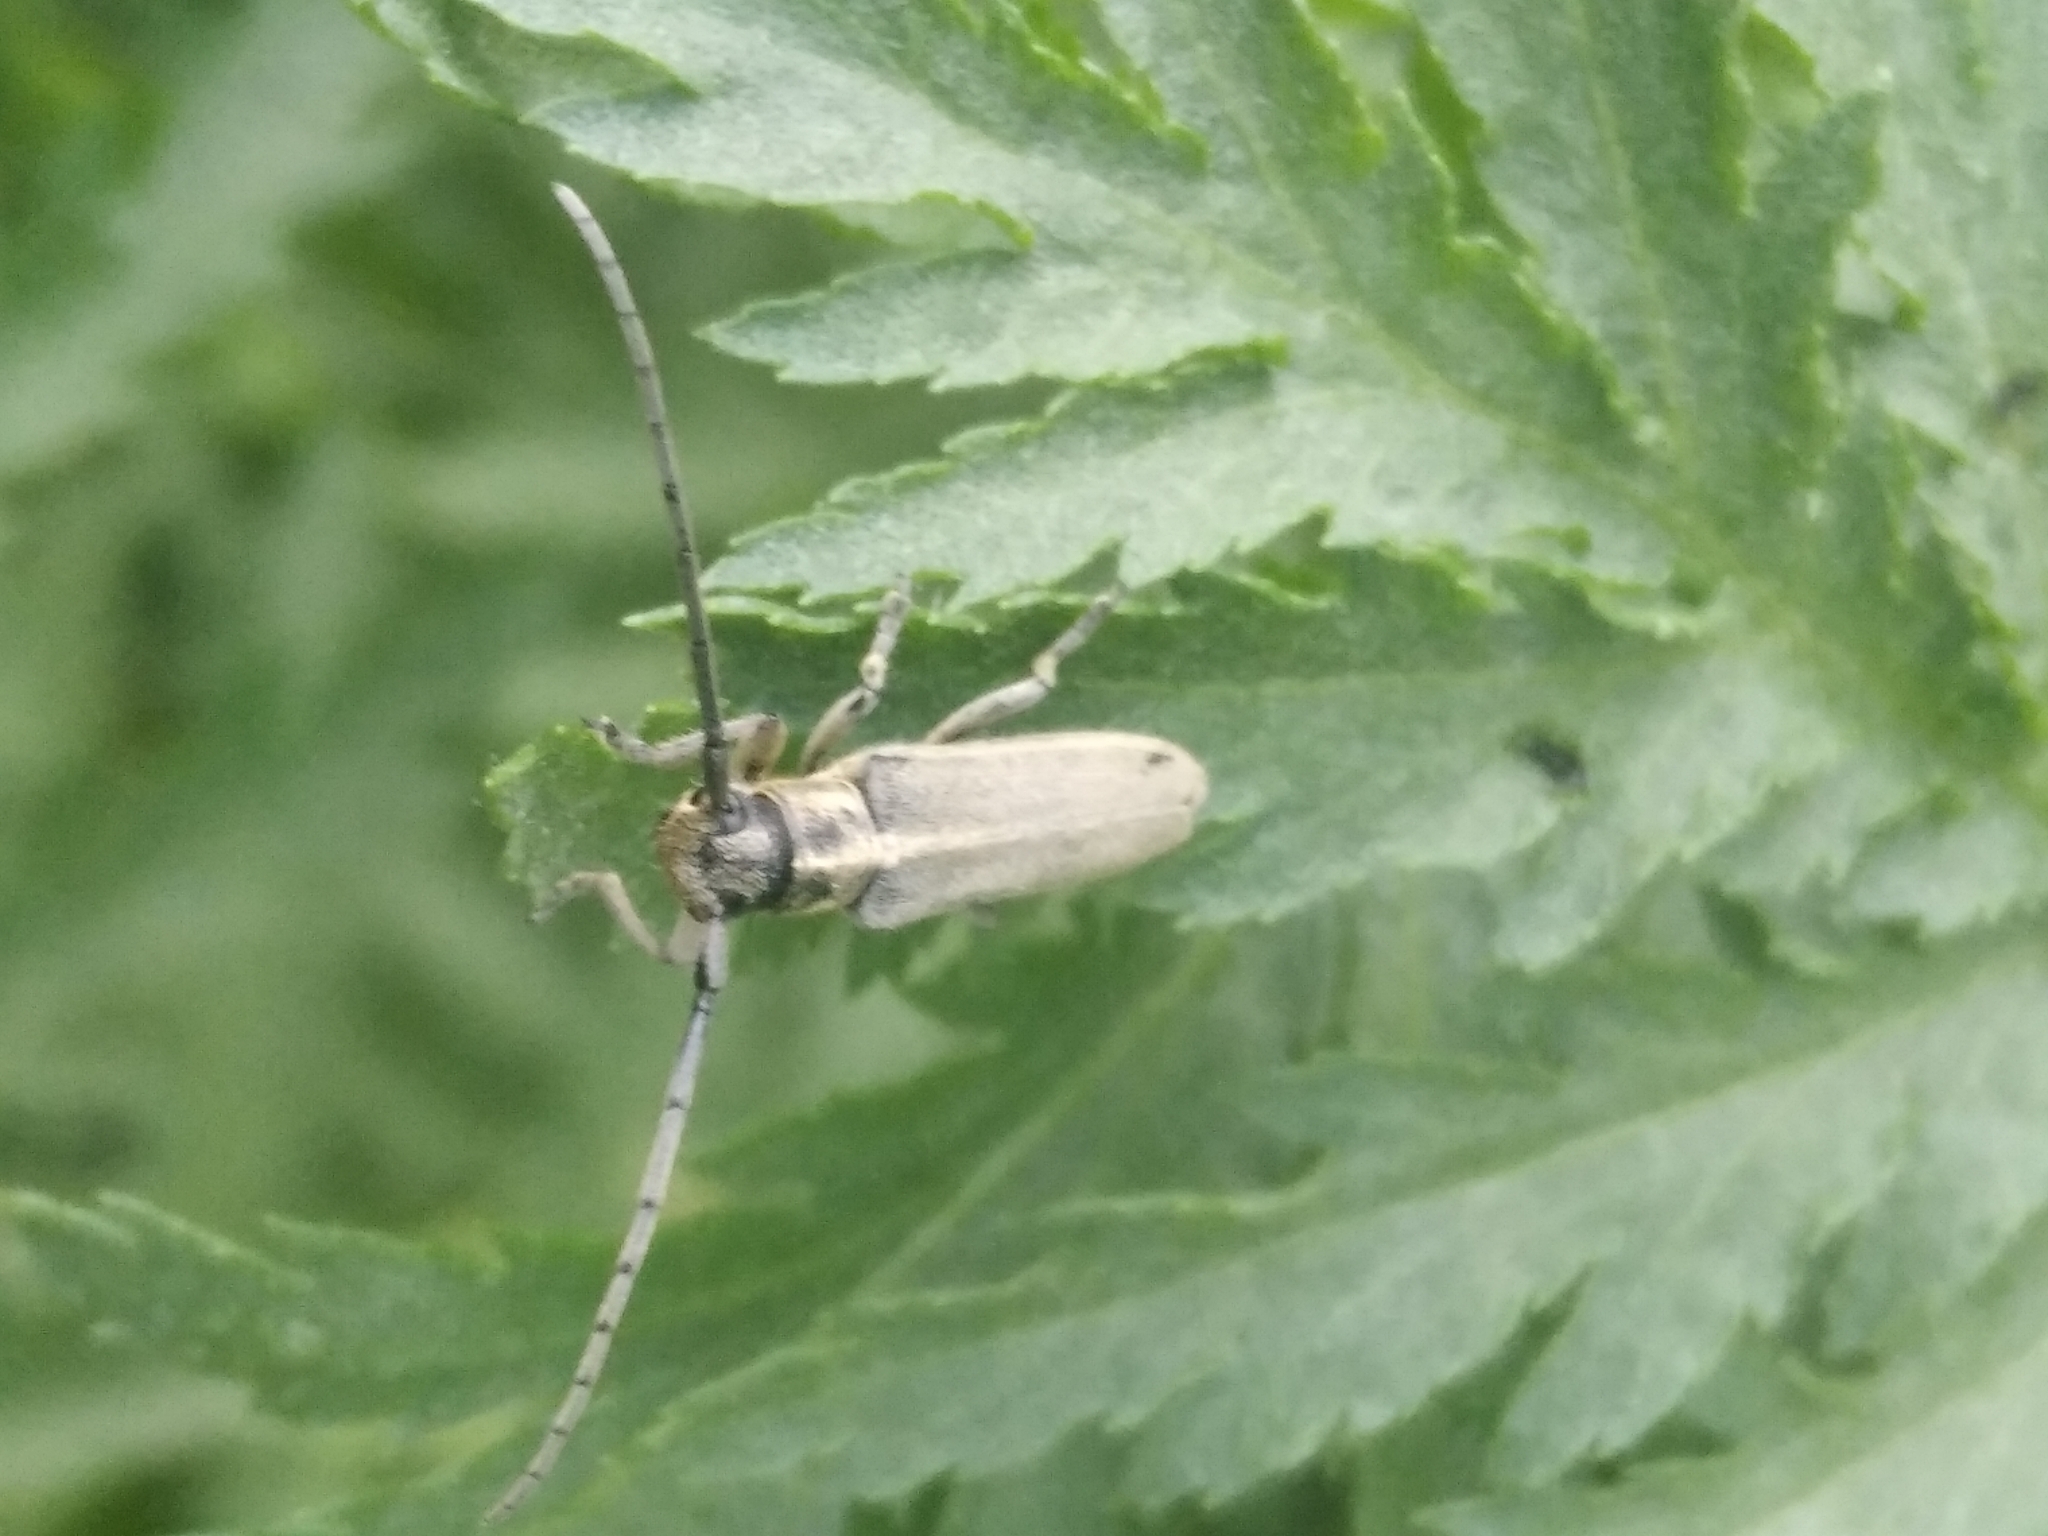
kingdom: Animalia
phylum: Arthropoda
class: Insecta
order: Coleoptera
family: Cerambycidae
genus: Phytoecia
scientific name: Phytoecia nigricornis
